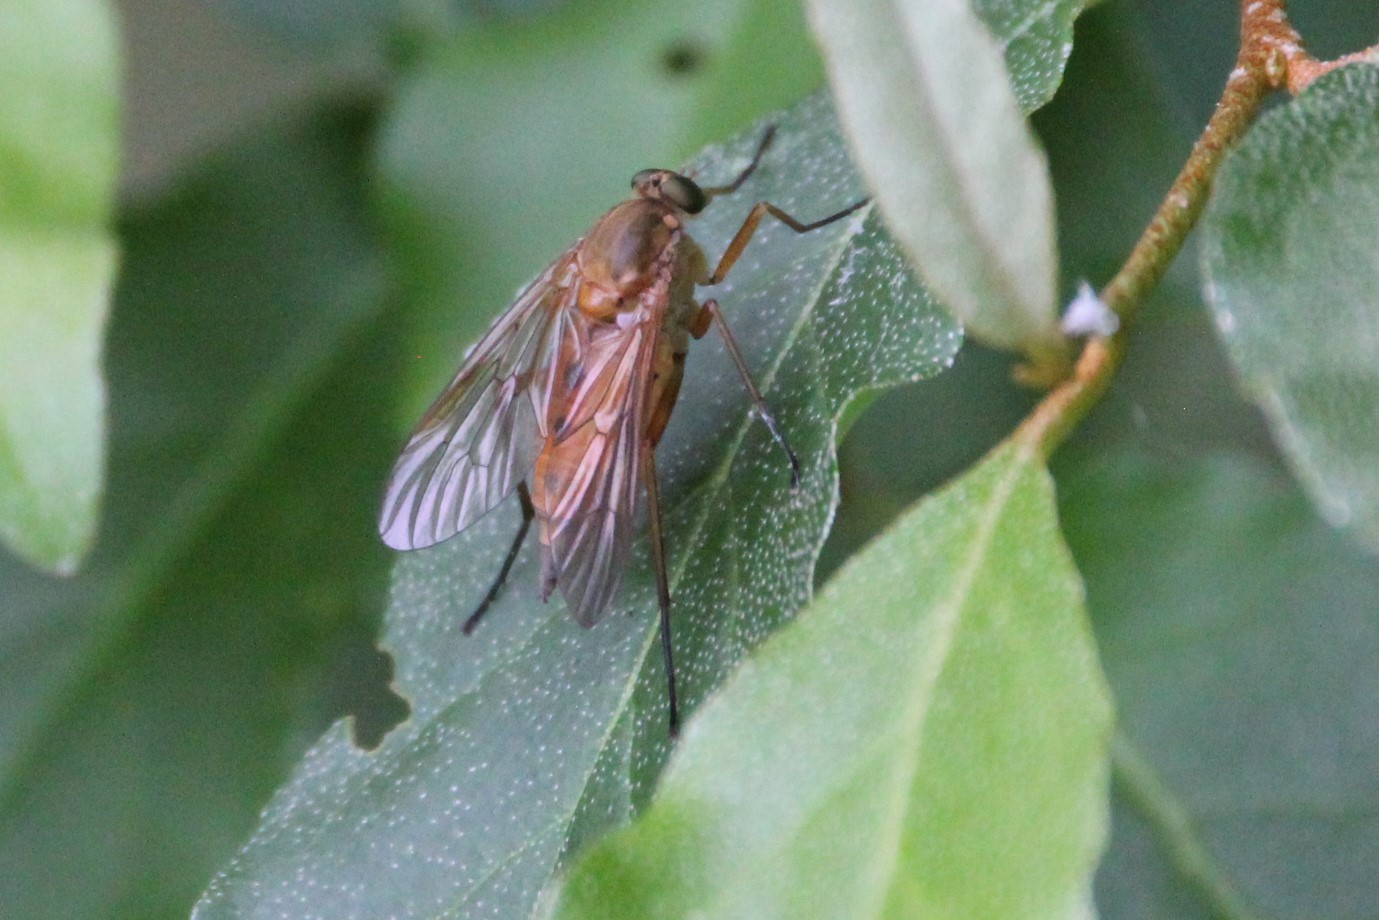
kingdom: Animalia
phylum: Arthropoda
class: Insecta
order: Diptera
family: Rhagionidae
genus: Rhagio
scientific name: Rhagio tringaria
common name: Marsh snipefly
